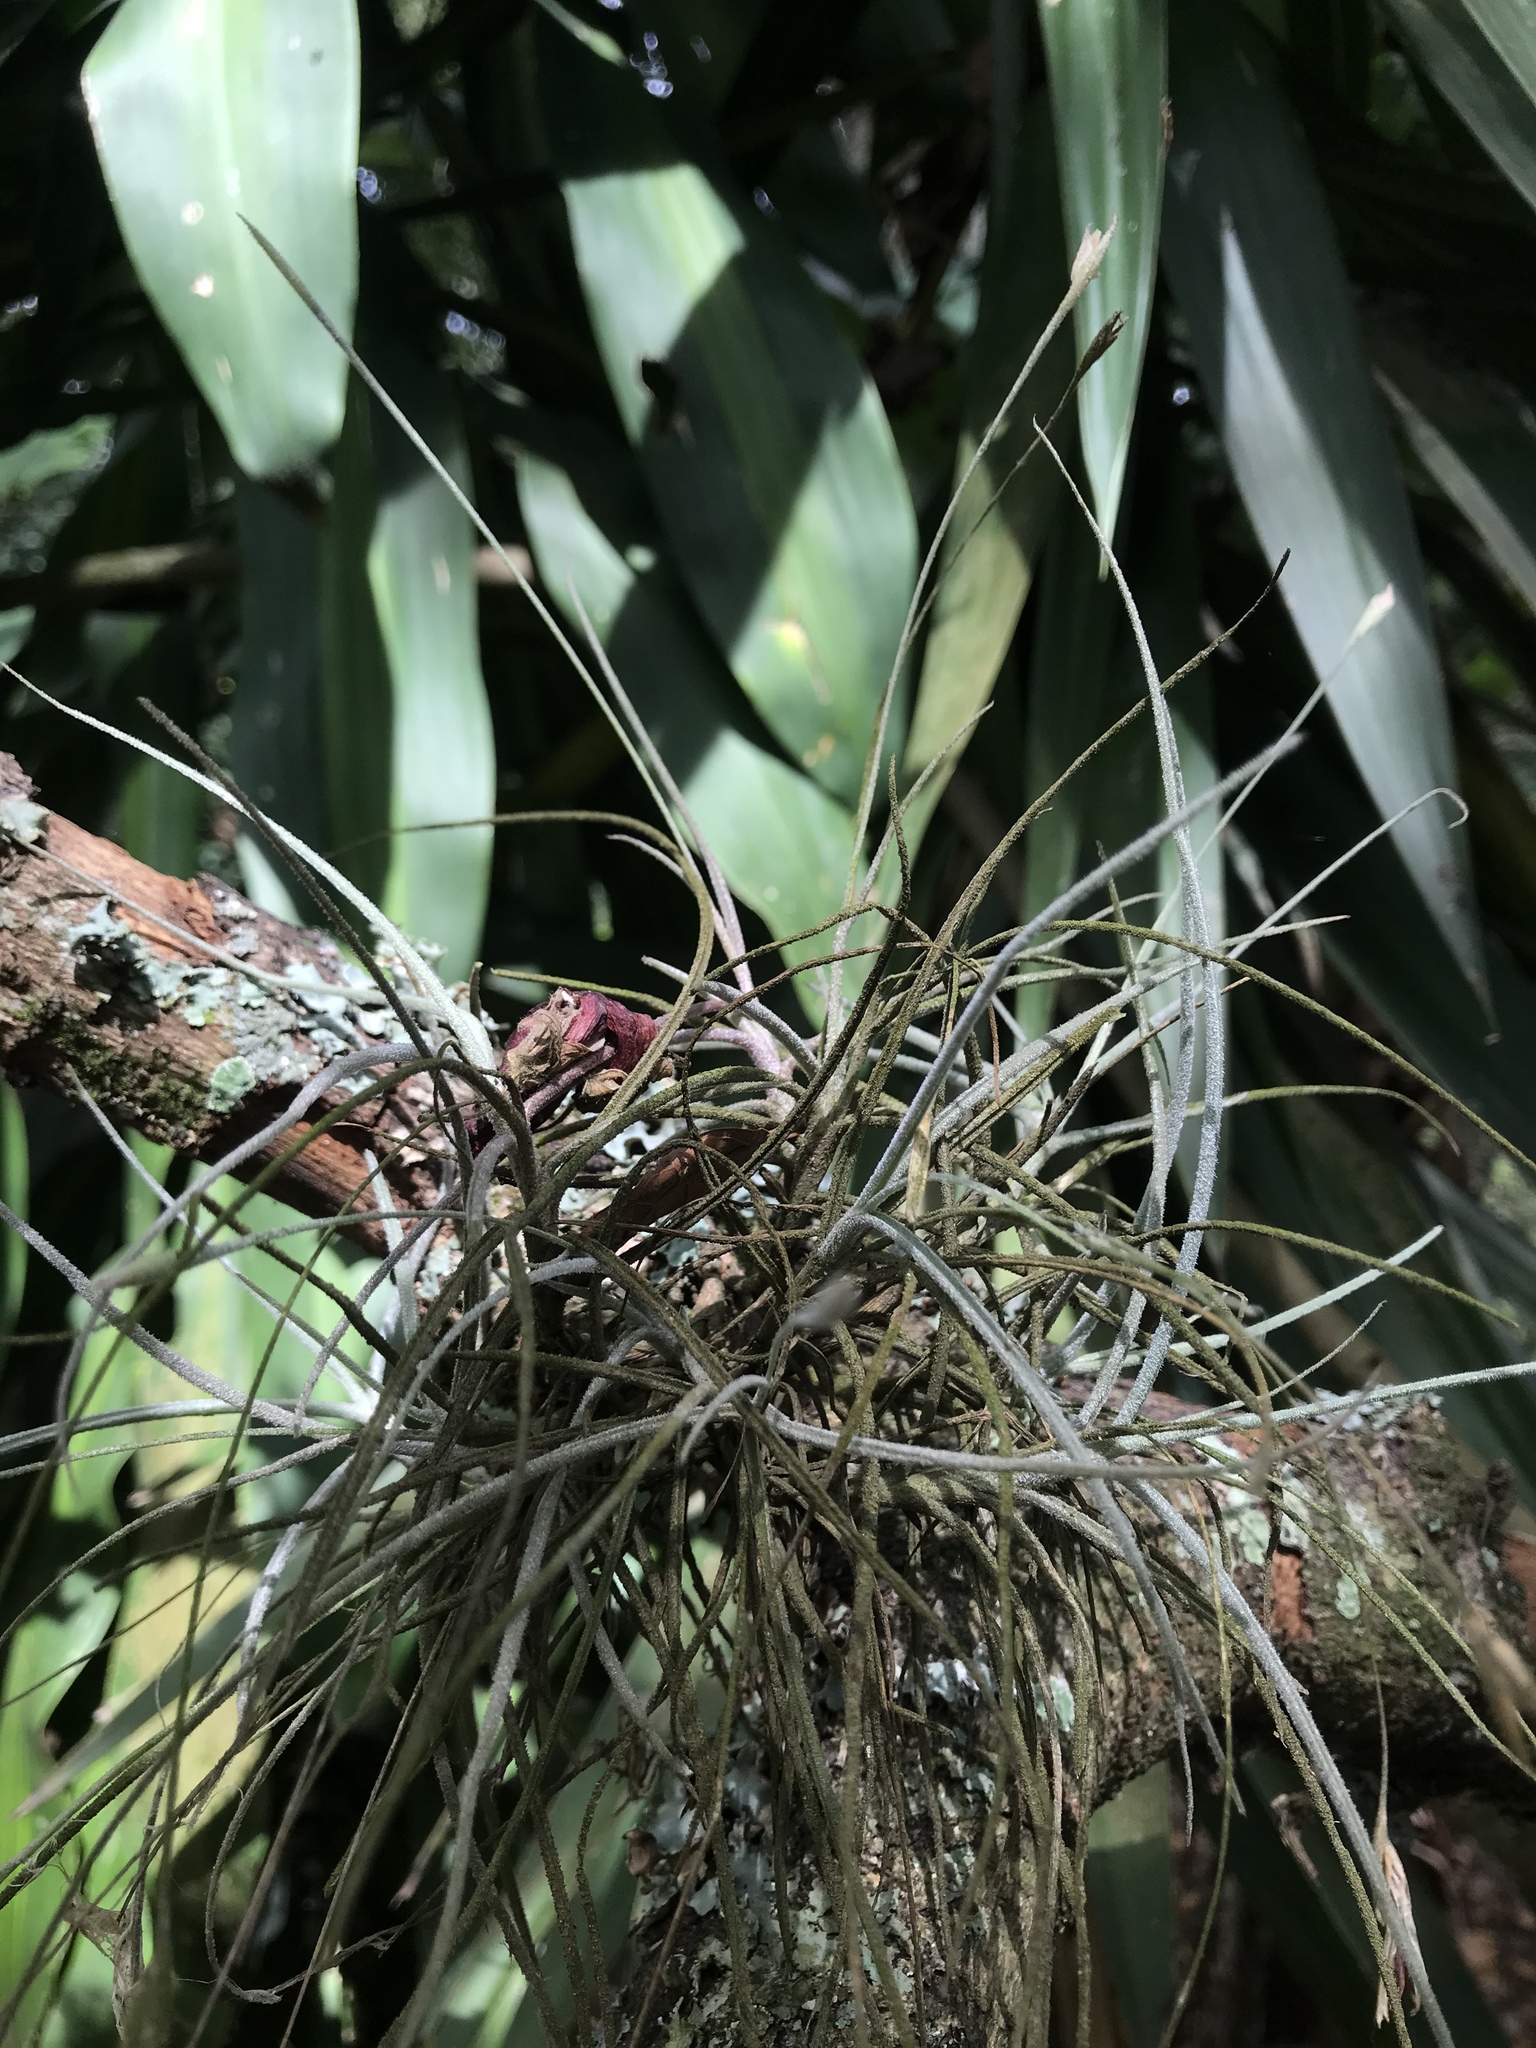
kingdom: Plantae
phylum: Tracheophyta
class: Liliopsida
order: Poales
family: Bromeliaceae
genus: Tillandsia
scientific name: Tillandsia recurvata
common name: Small ballmoss
